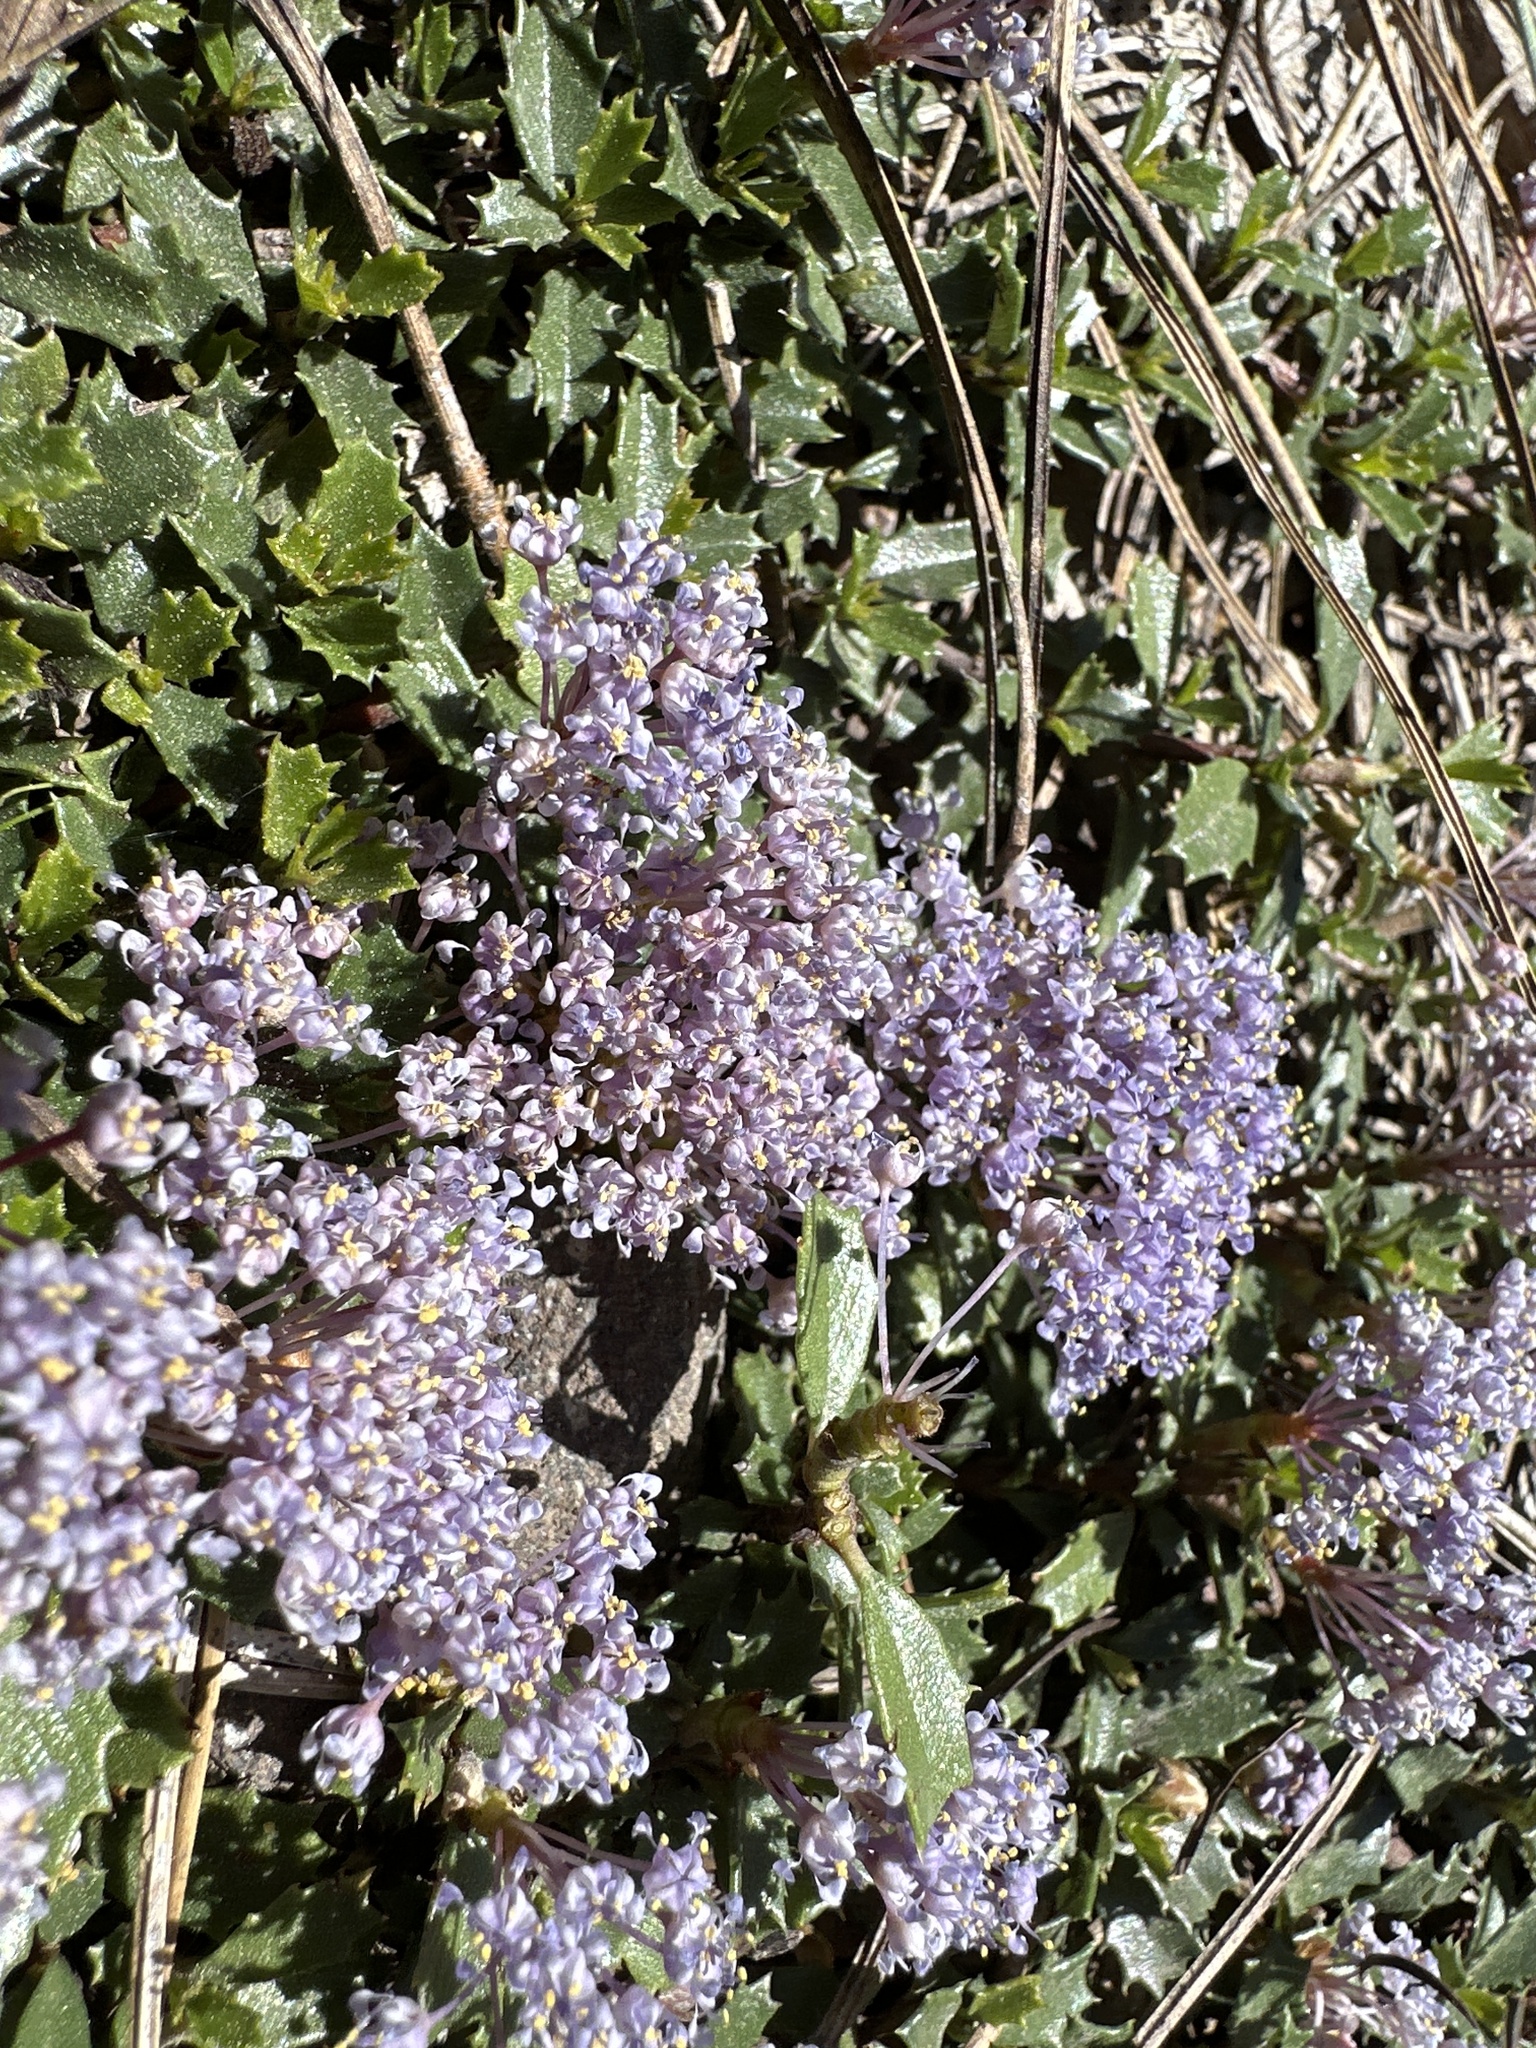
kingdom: Plantae
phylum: Tracheophyta
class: Magnoliopsida
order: Rosales
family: Rhamnaceae
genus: Ceanothus
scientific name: Ceanothus prostratus
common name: Mahala-mat
